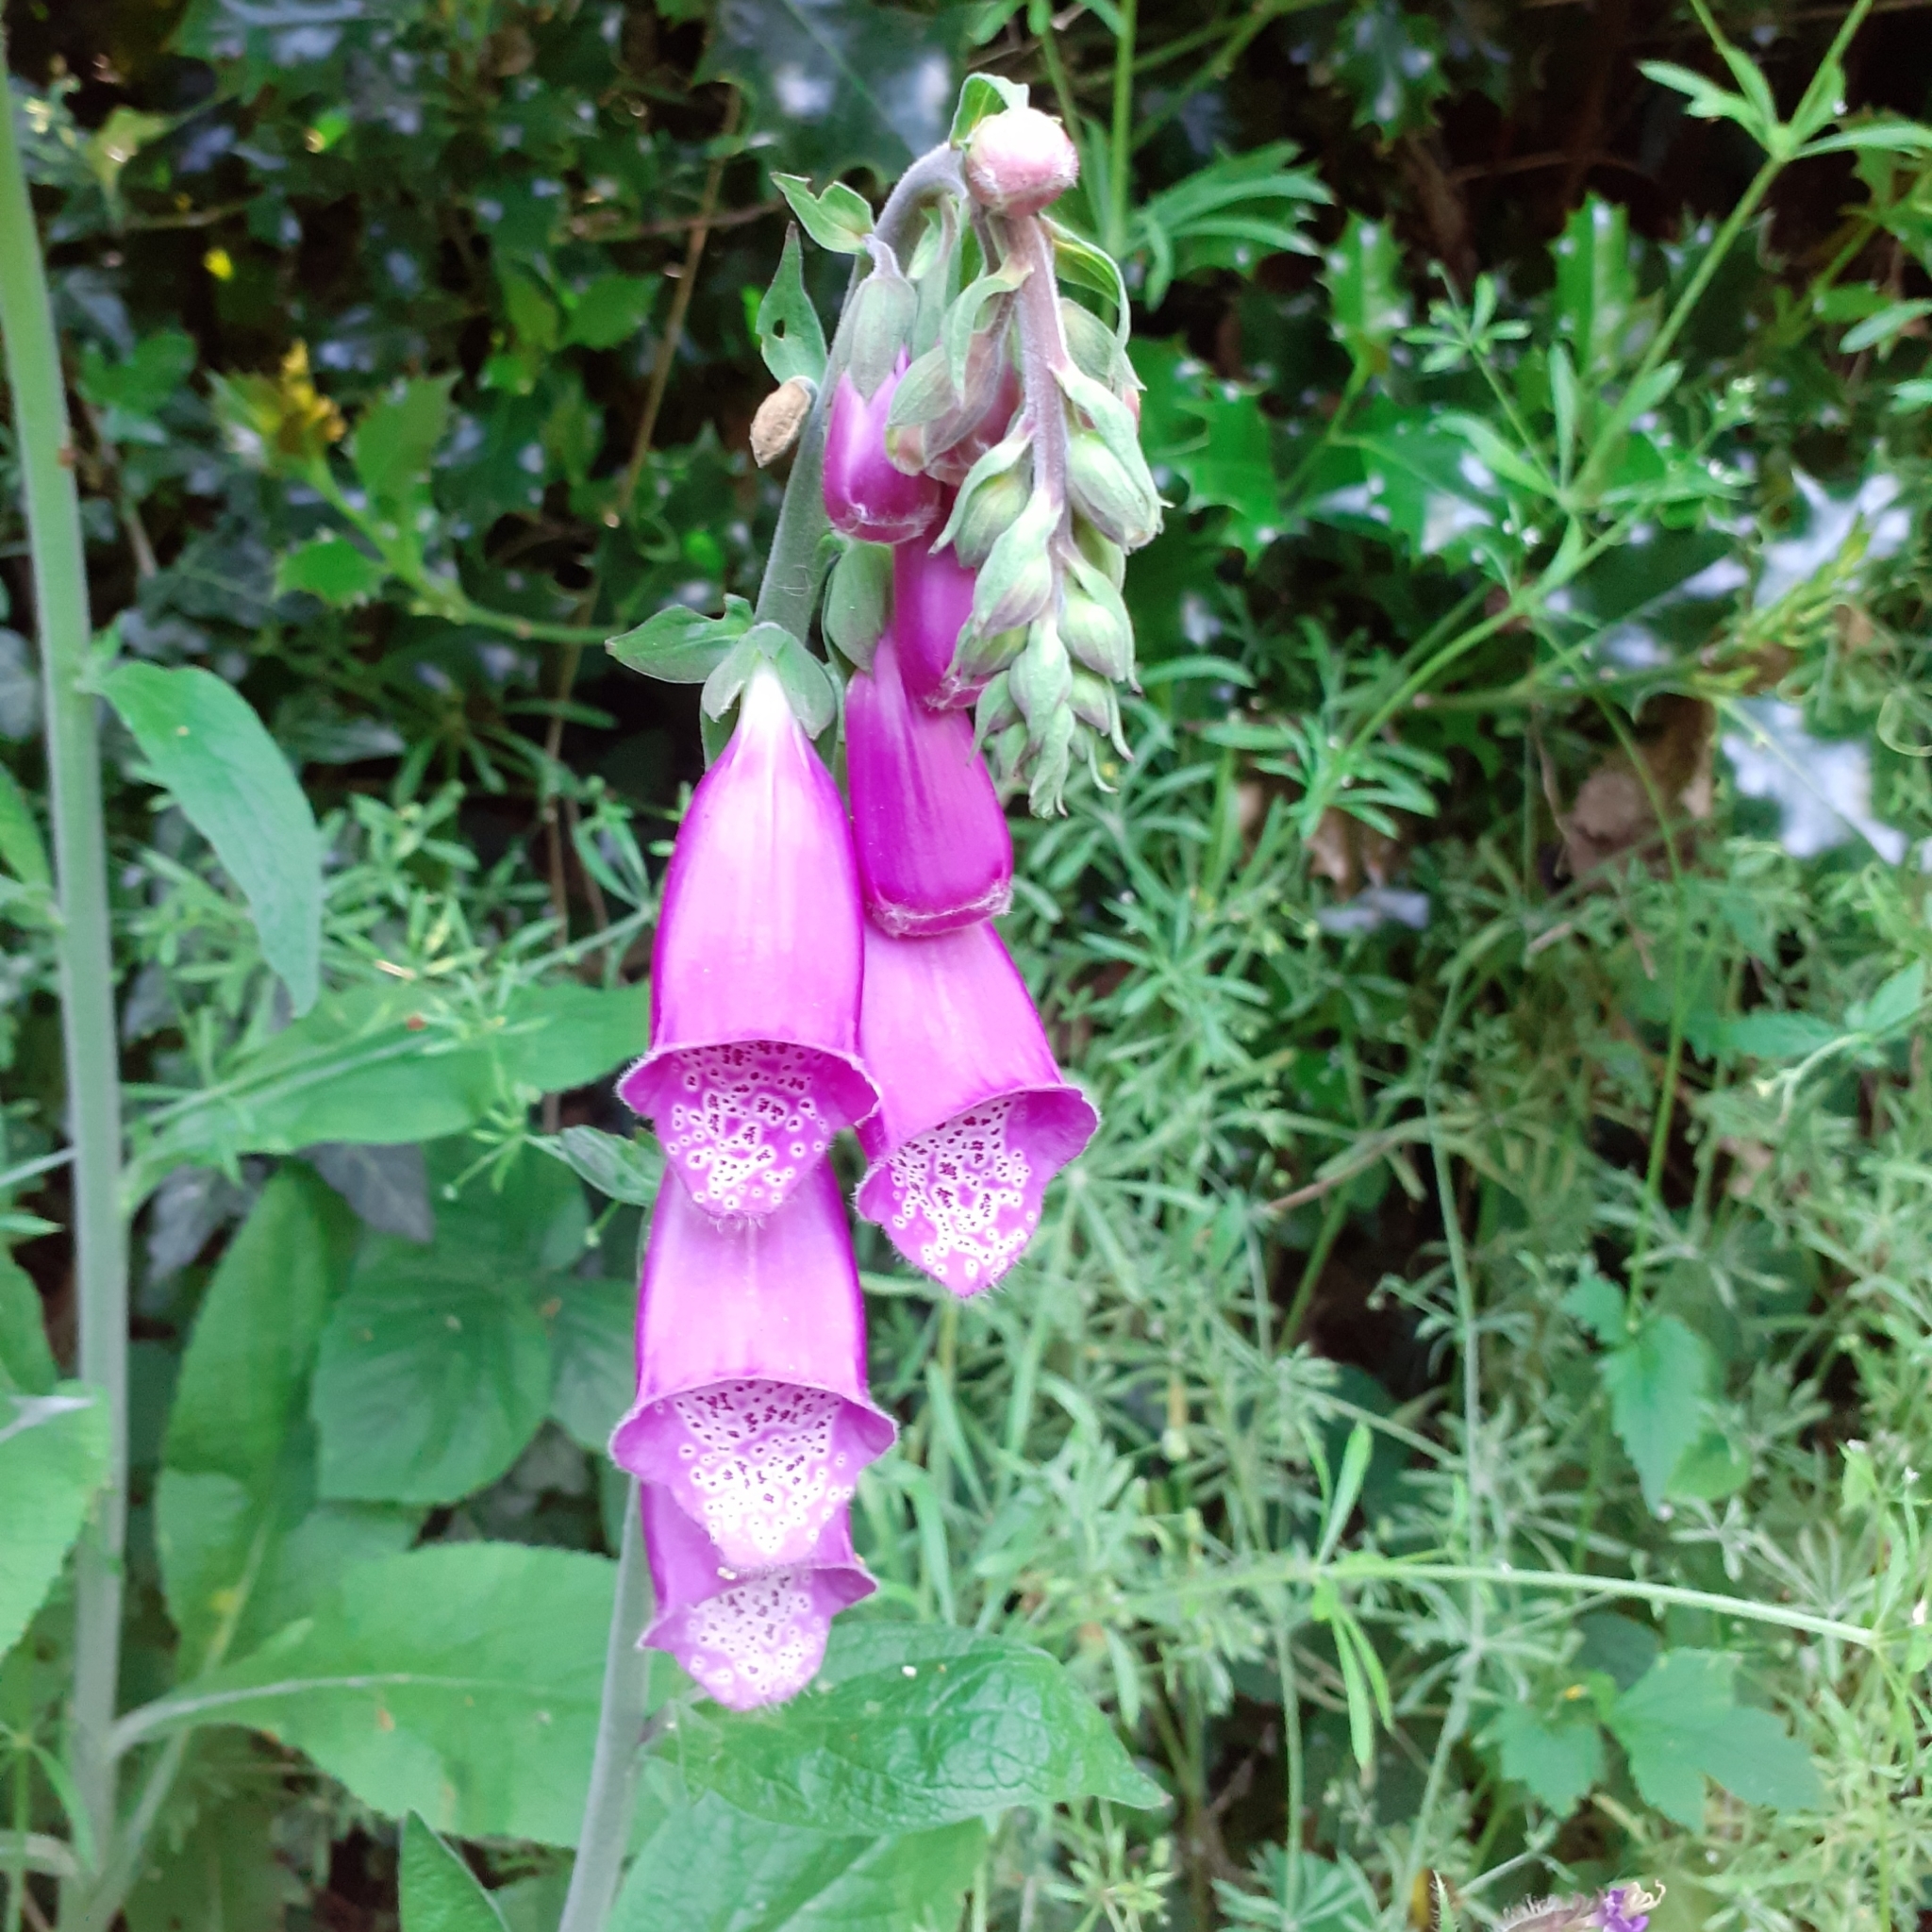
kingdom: Plantae
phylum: Tracheophyta
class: Magnoliopsida
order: Lamiales
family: Plantaginaceae
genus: Digitalis
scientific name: Digitalis purpurea
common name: Foxglove
